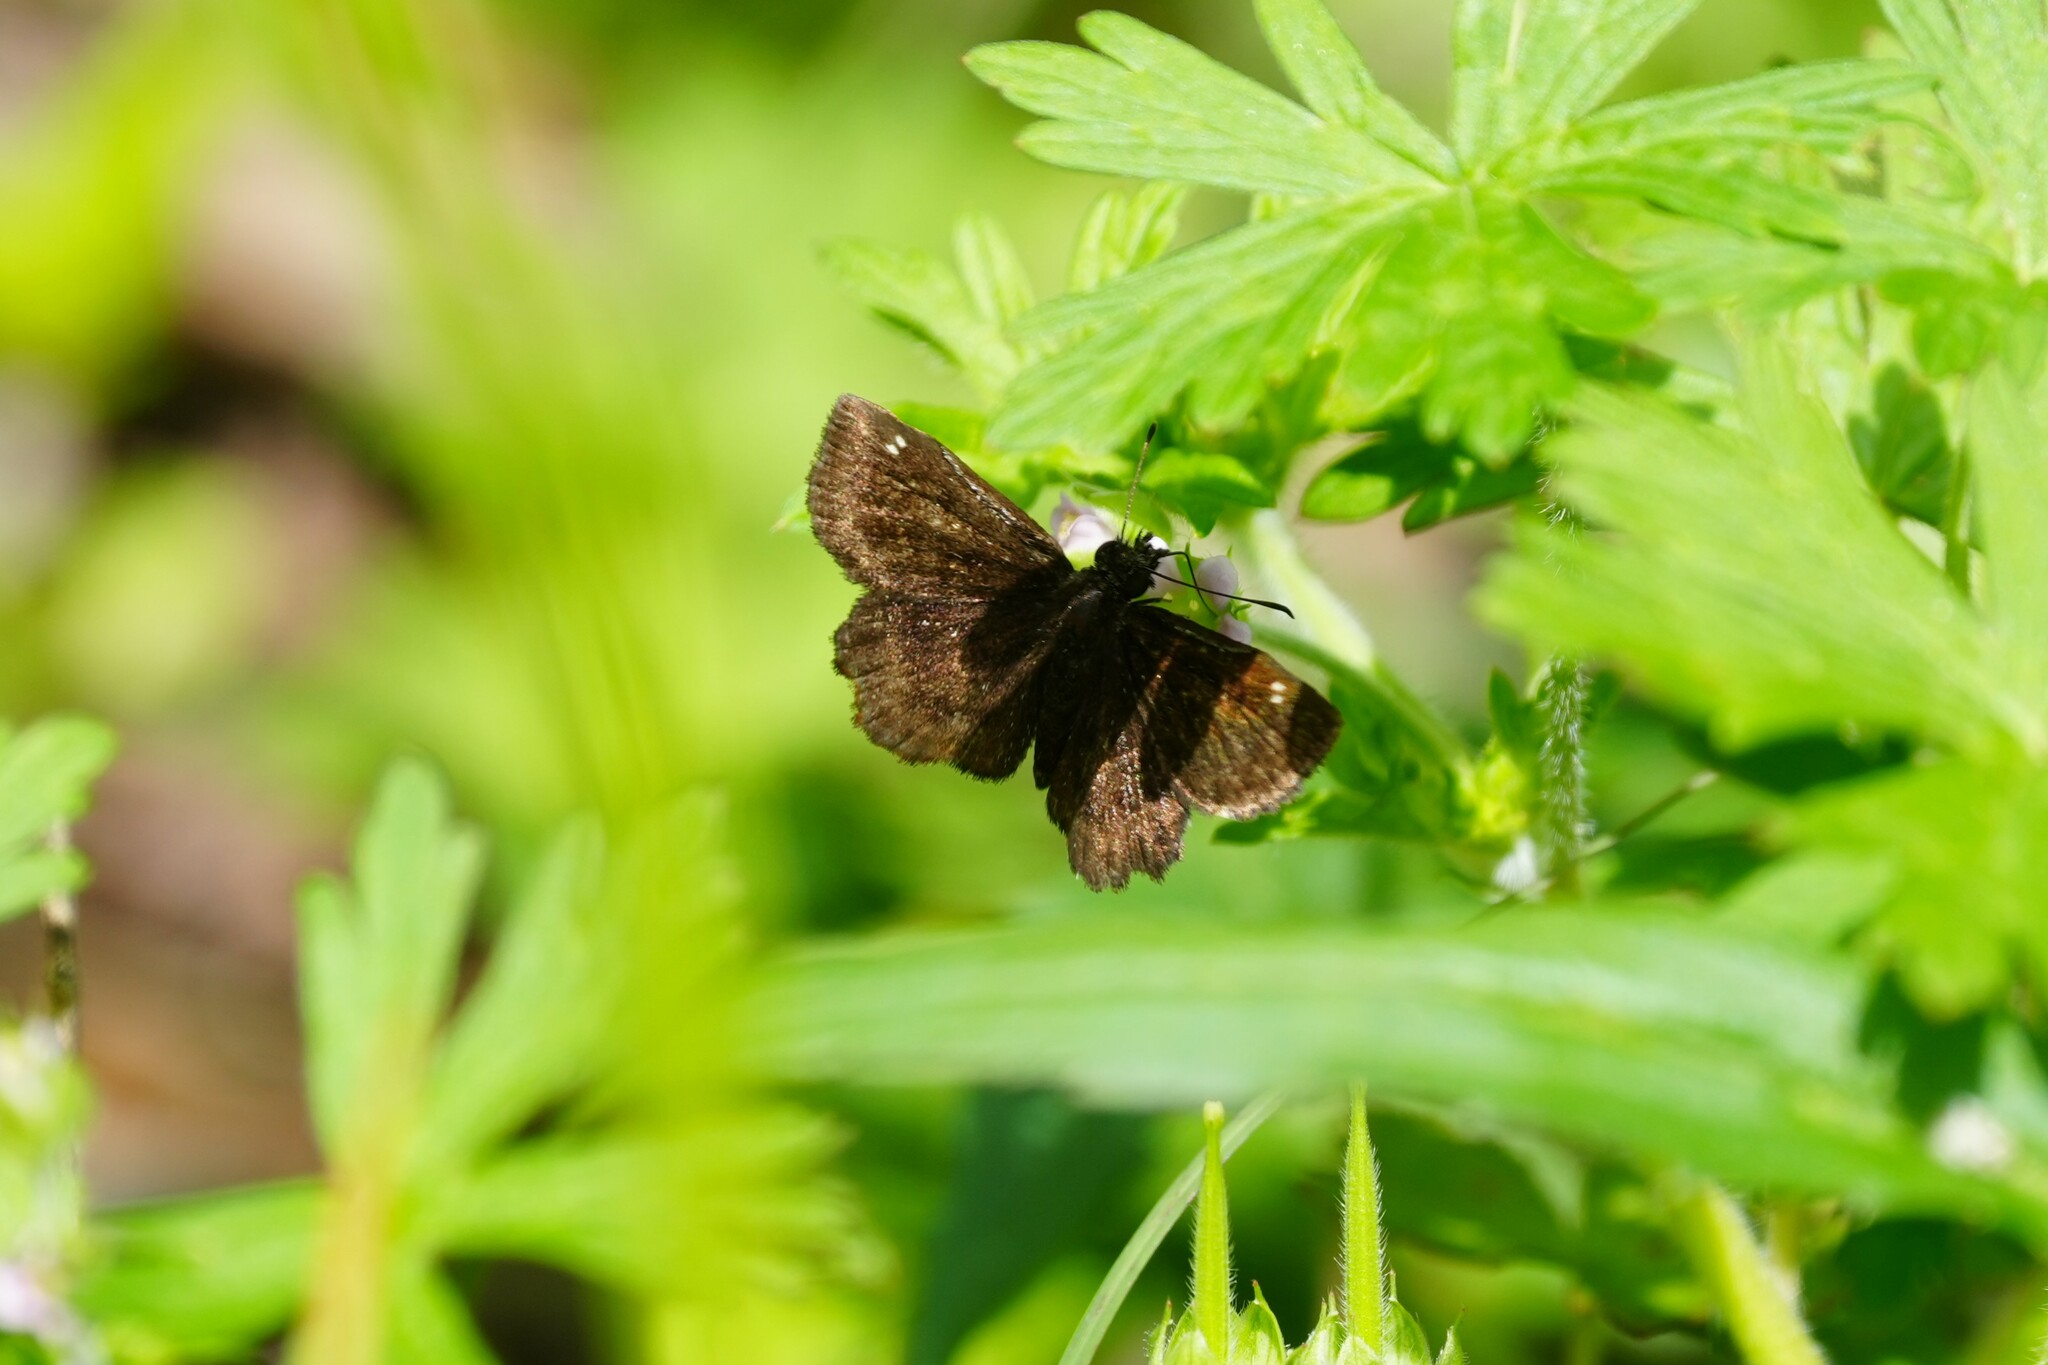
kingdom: Animalia
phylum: Arthropoda
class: Insecta
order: Lepidoptera
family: Hesperiidae
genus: Staphylus
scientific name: Staphylus mazans
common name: Mazans scallopwing
